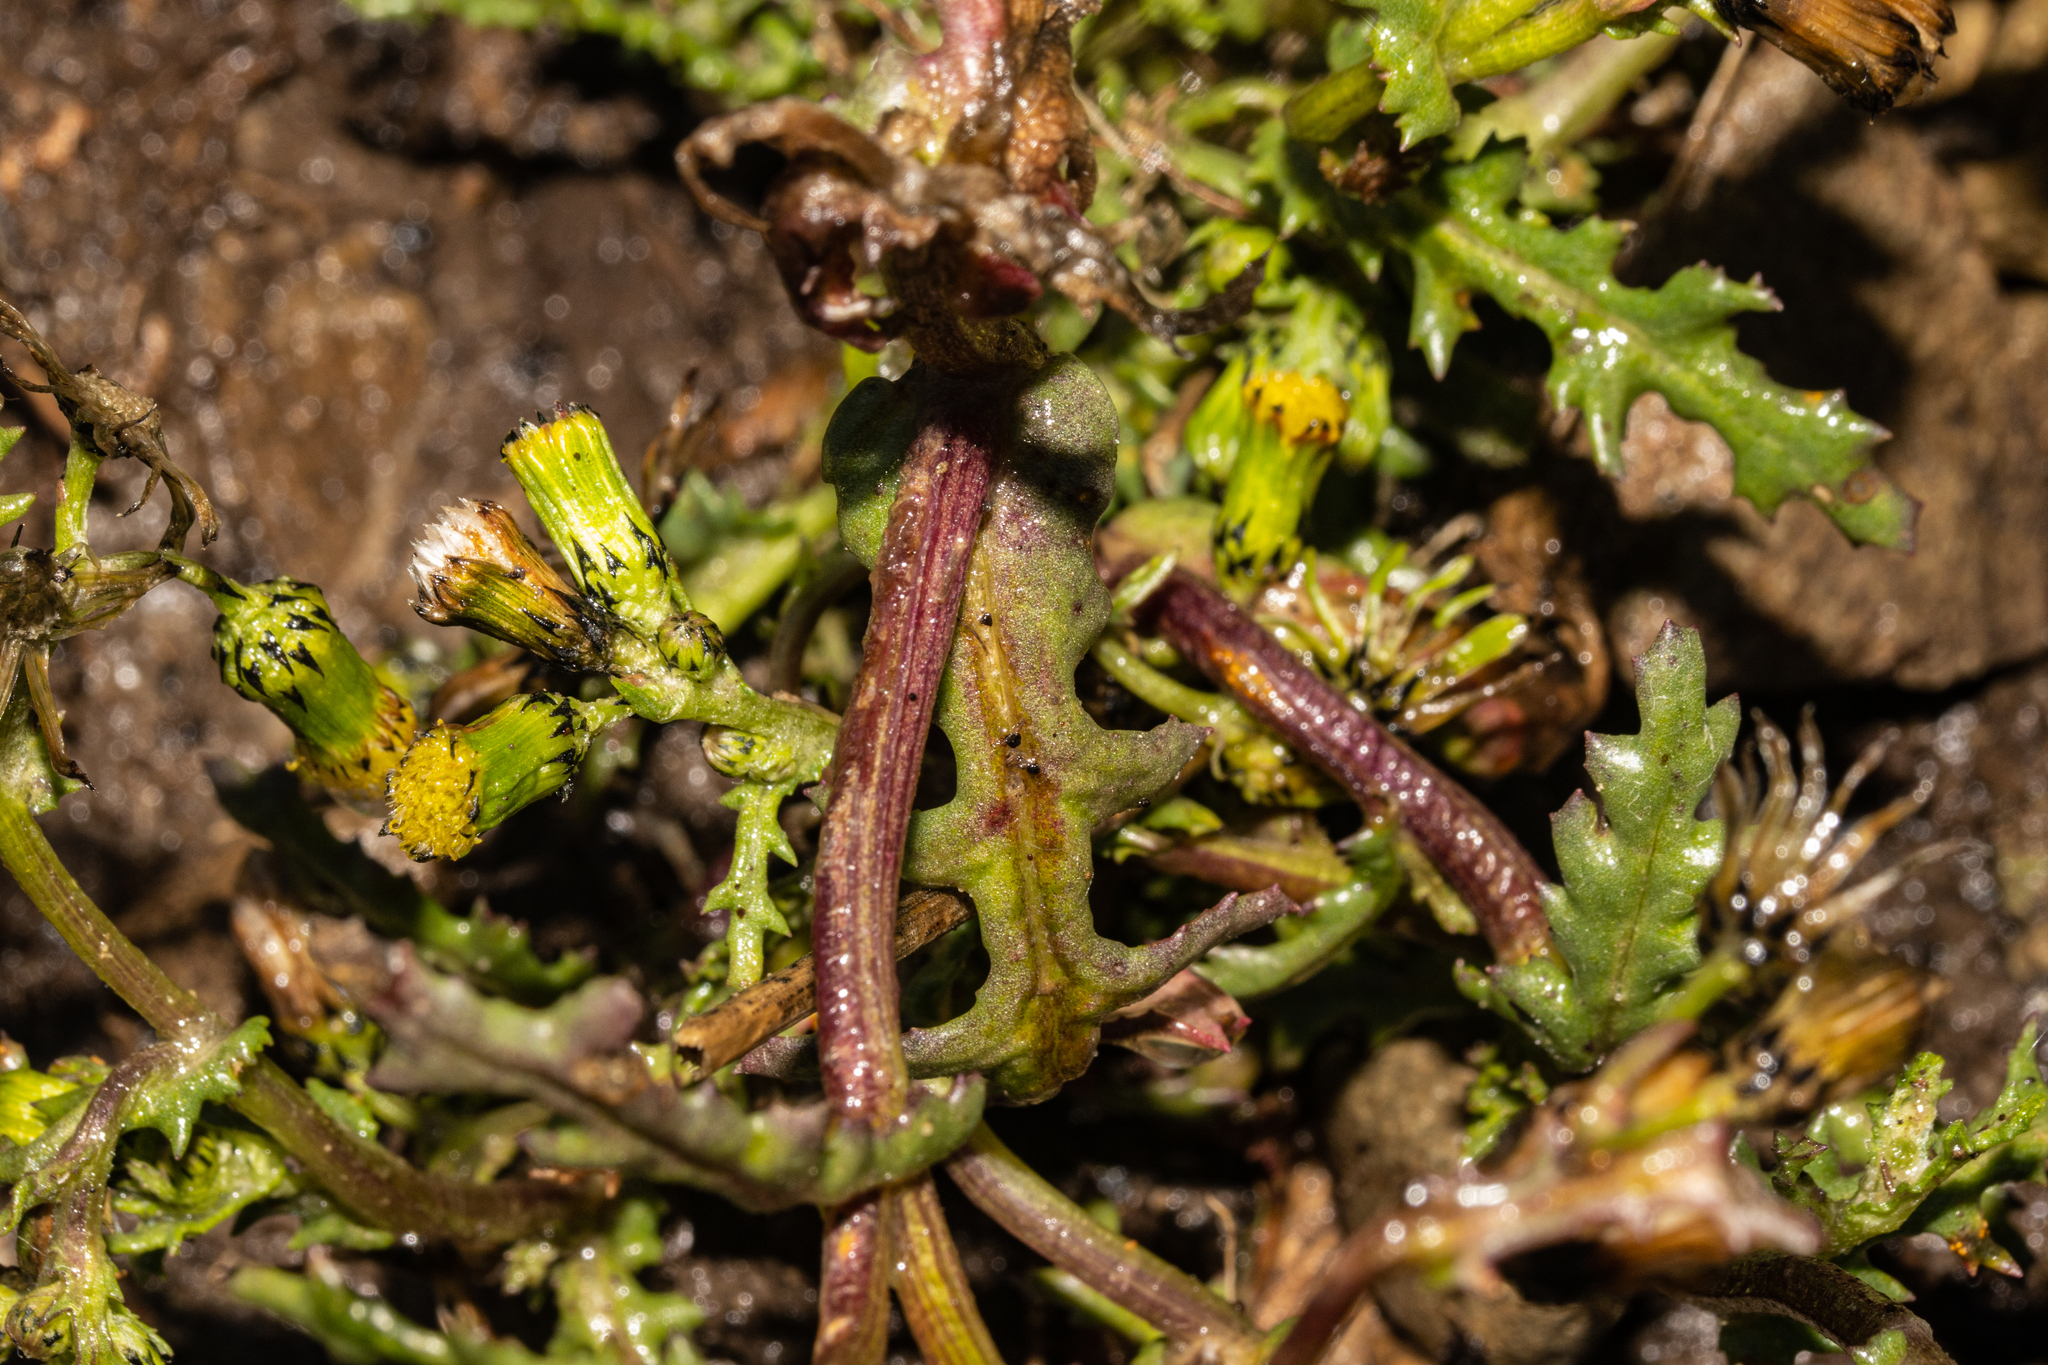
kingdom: Plantae
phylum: Tracheophyta
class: Magnoliopsida
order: Asterales
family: Asteraceae
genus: Senecio
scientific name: Senecio vulgaris
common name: Old-man-in-the-spring
